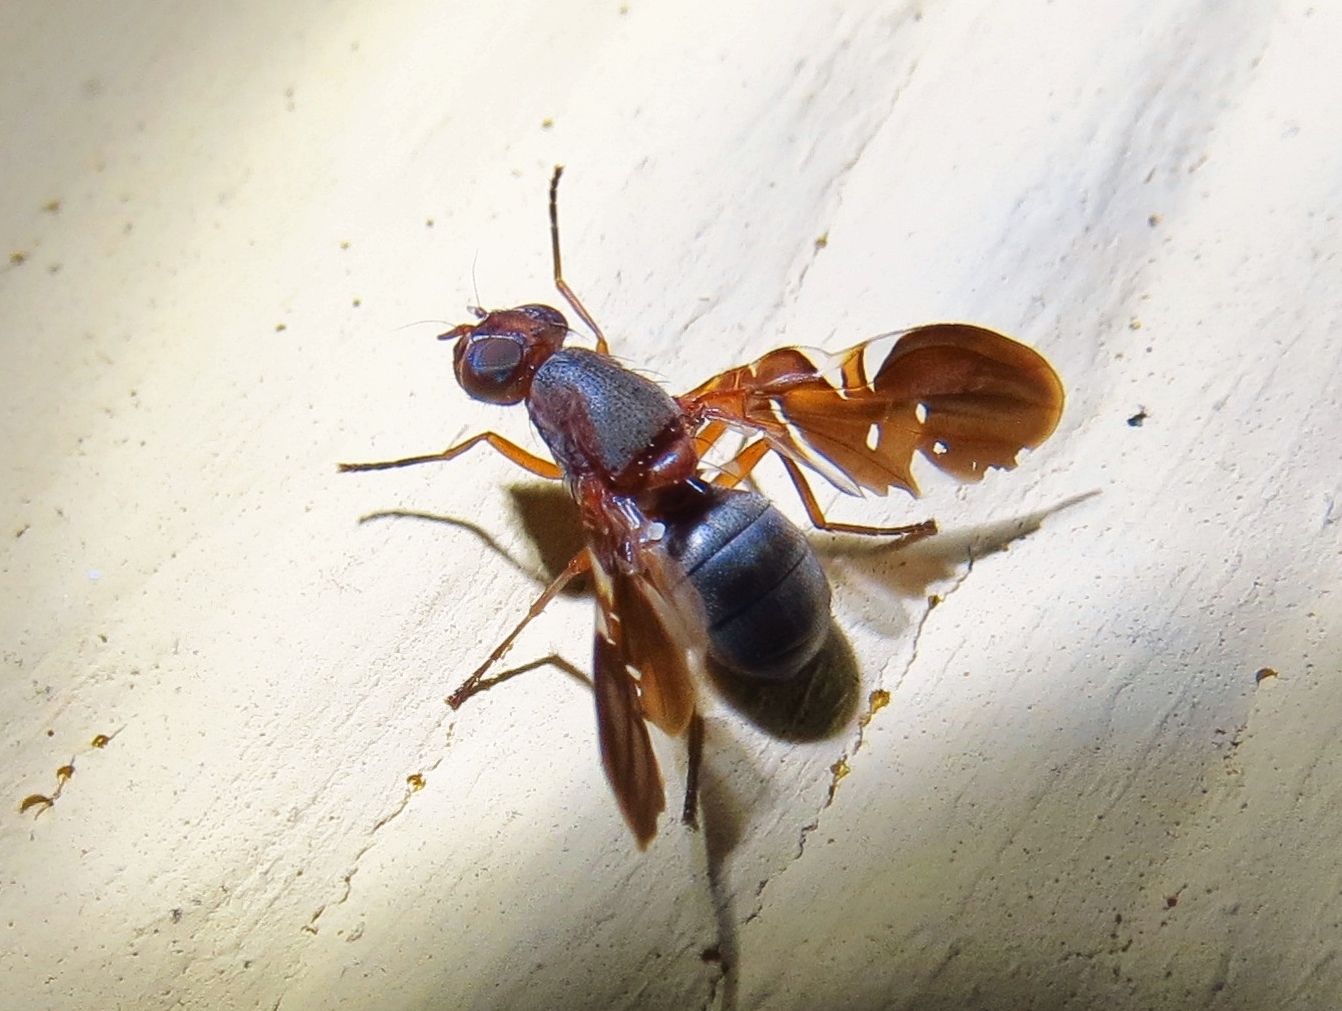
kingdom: Animalia
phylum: Arthropoda
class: Insecta
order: Diptera
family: Ulidiidae
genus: Delphinia
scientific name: Delphinia picta
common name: Common picture-winged fly
